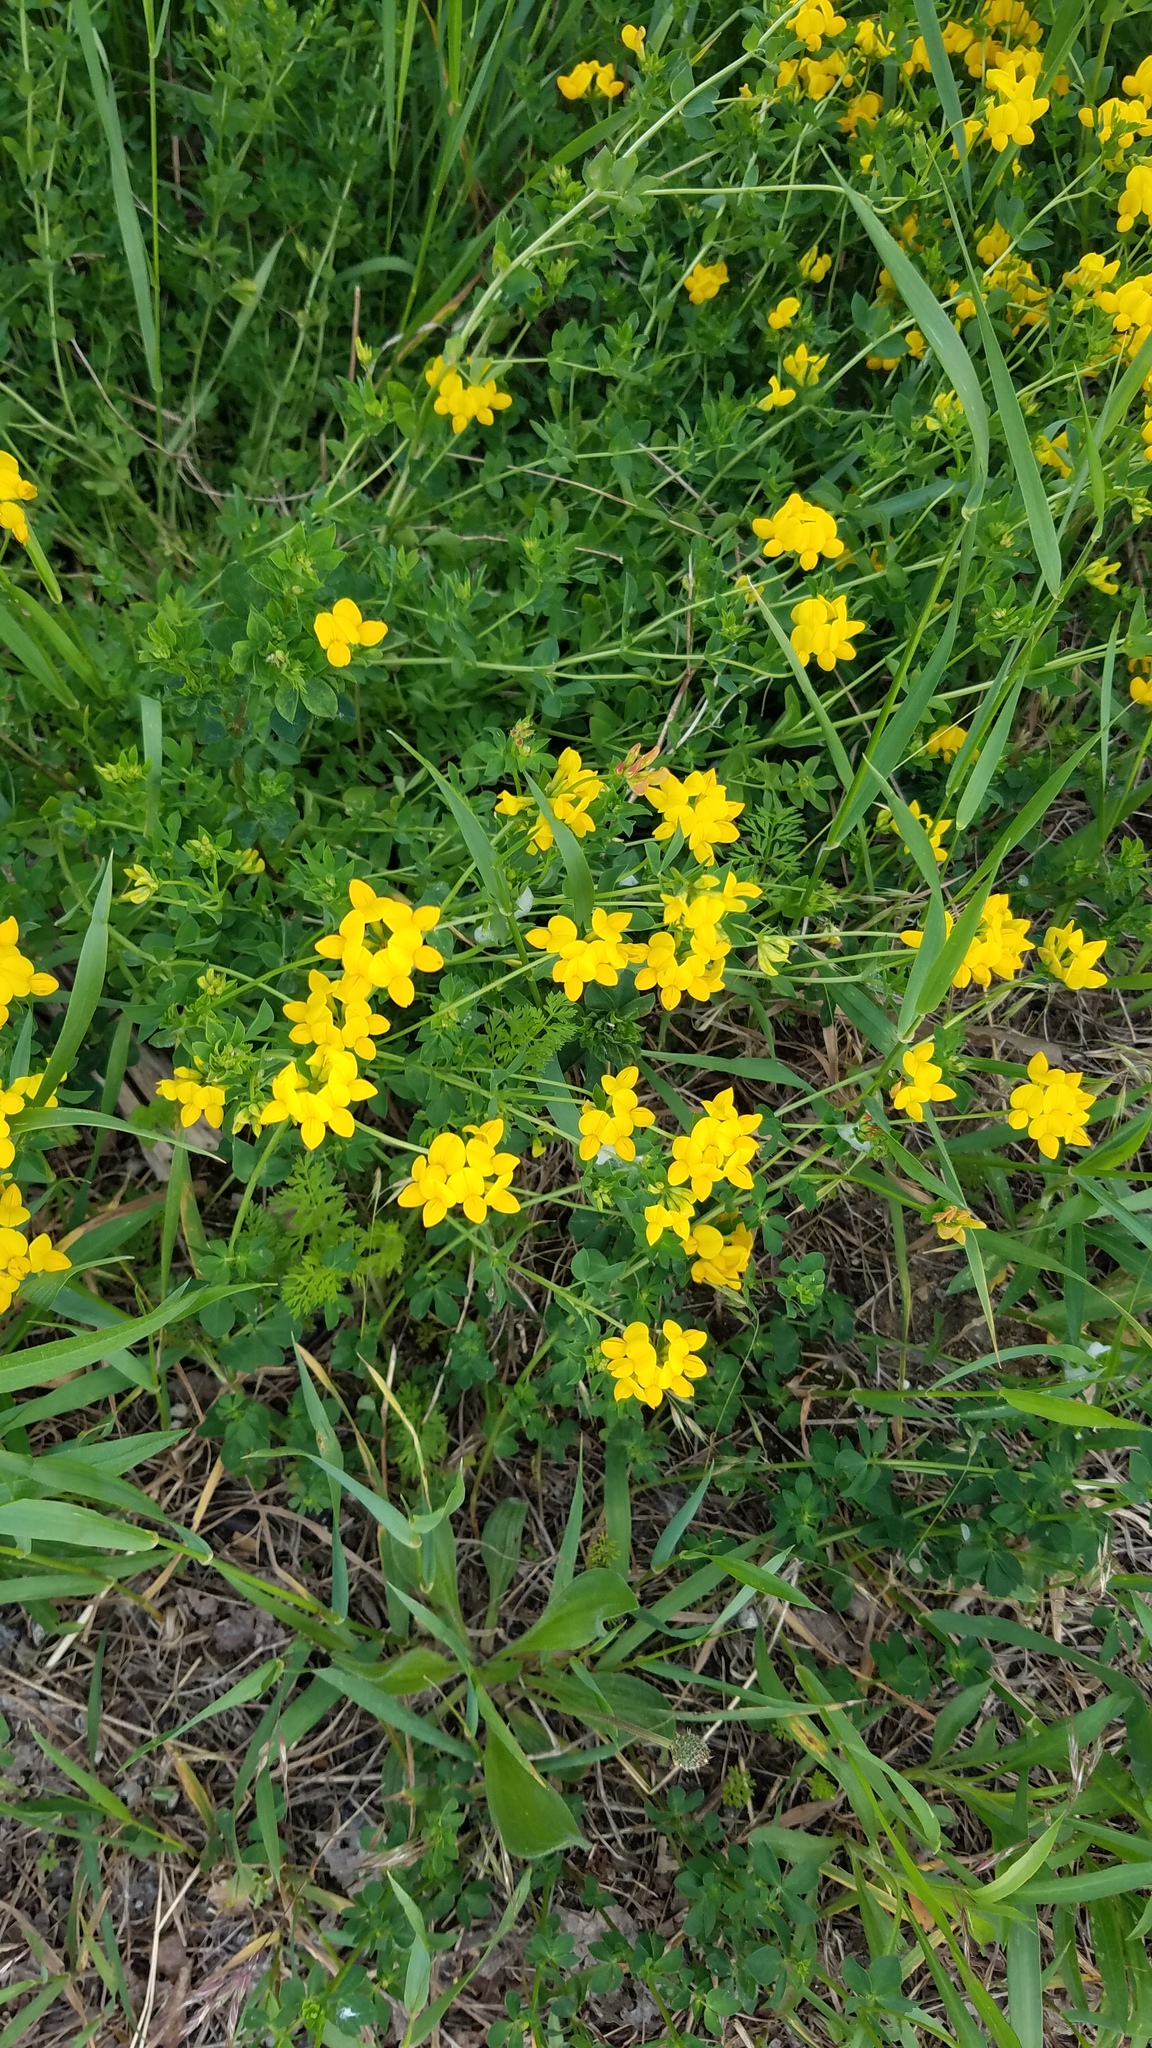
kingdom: Plantae
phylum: Tracheophyta
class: Magnoliopsida
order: Fabales
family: Fabaceae
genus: Lotus
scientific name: Lotus corniculatus
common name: Common bird's-foot-trefoil
